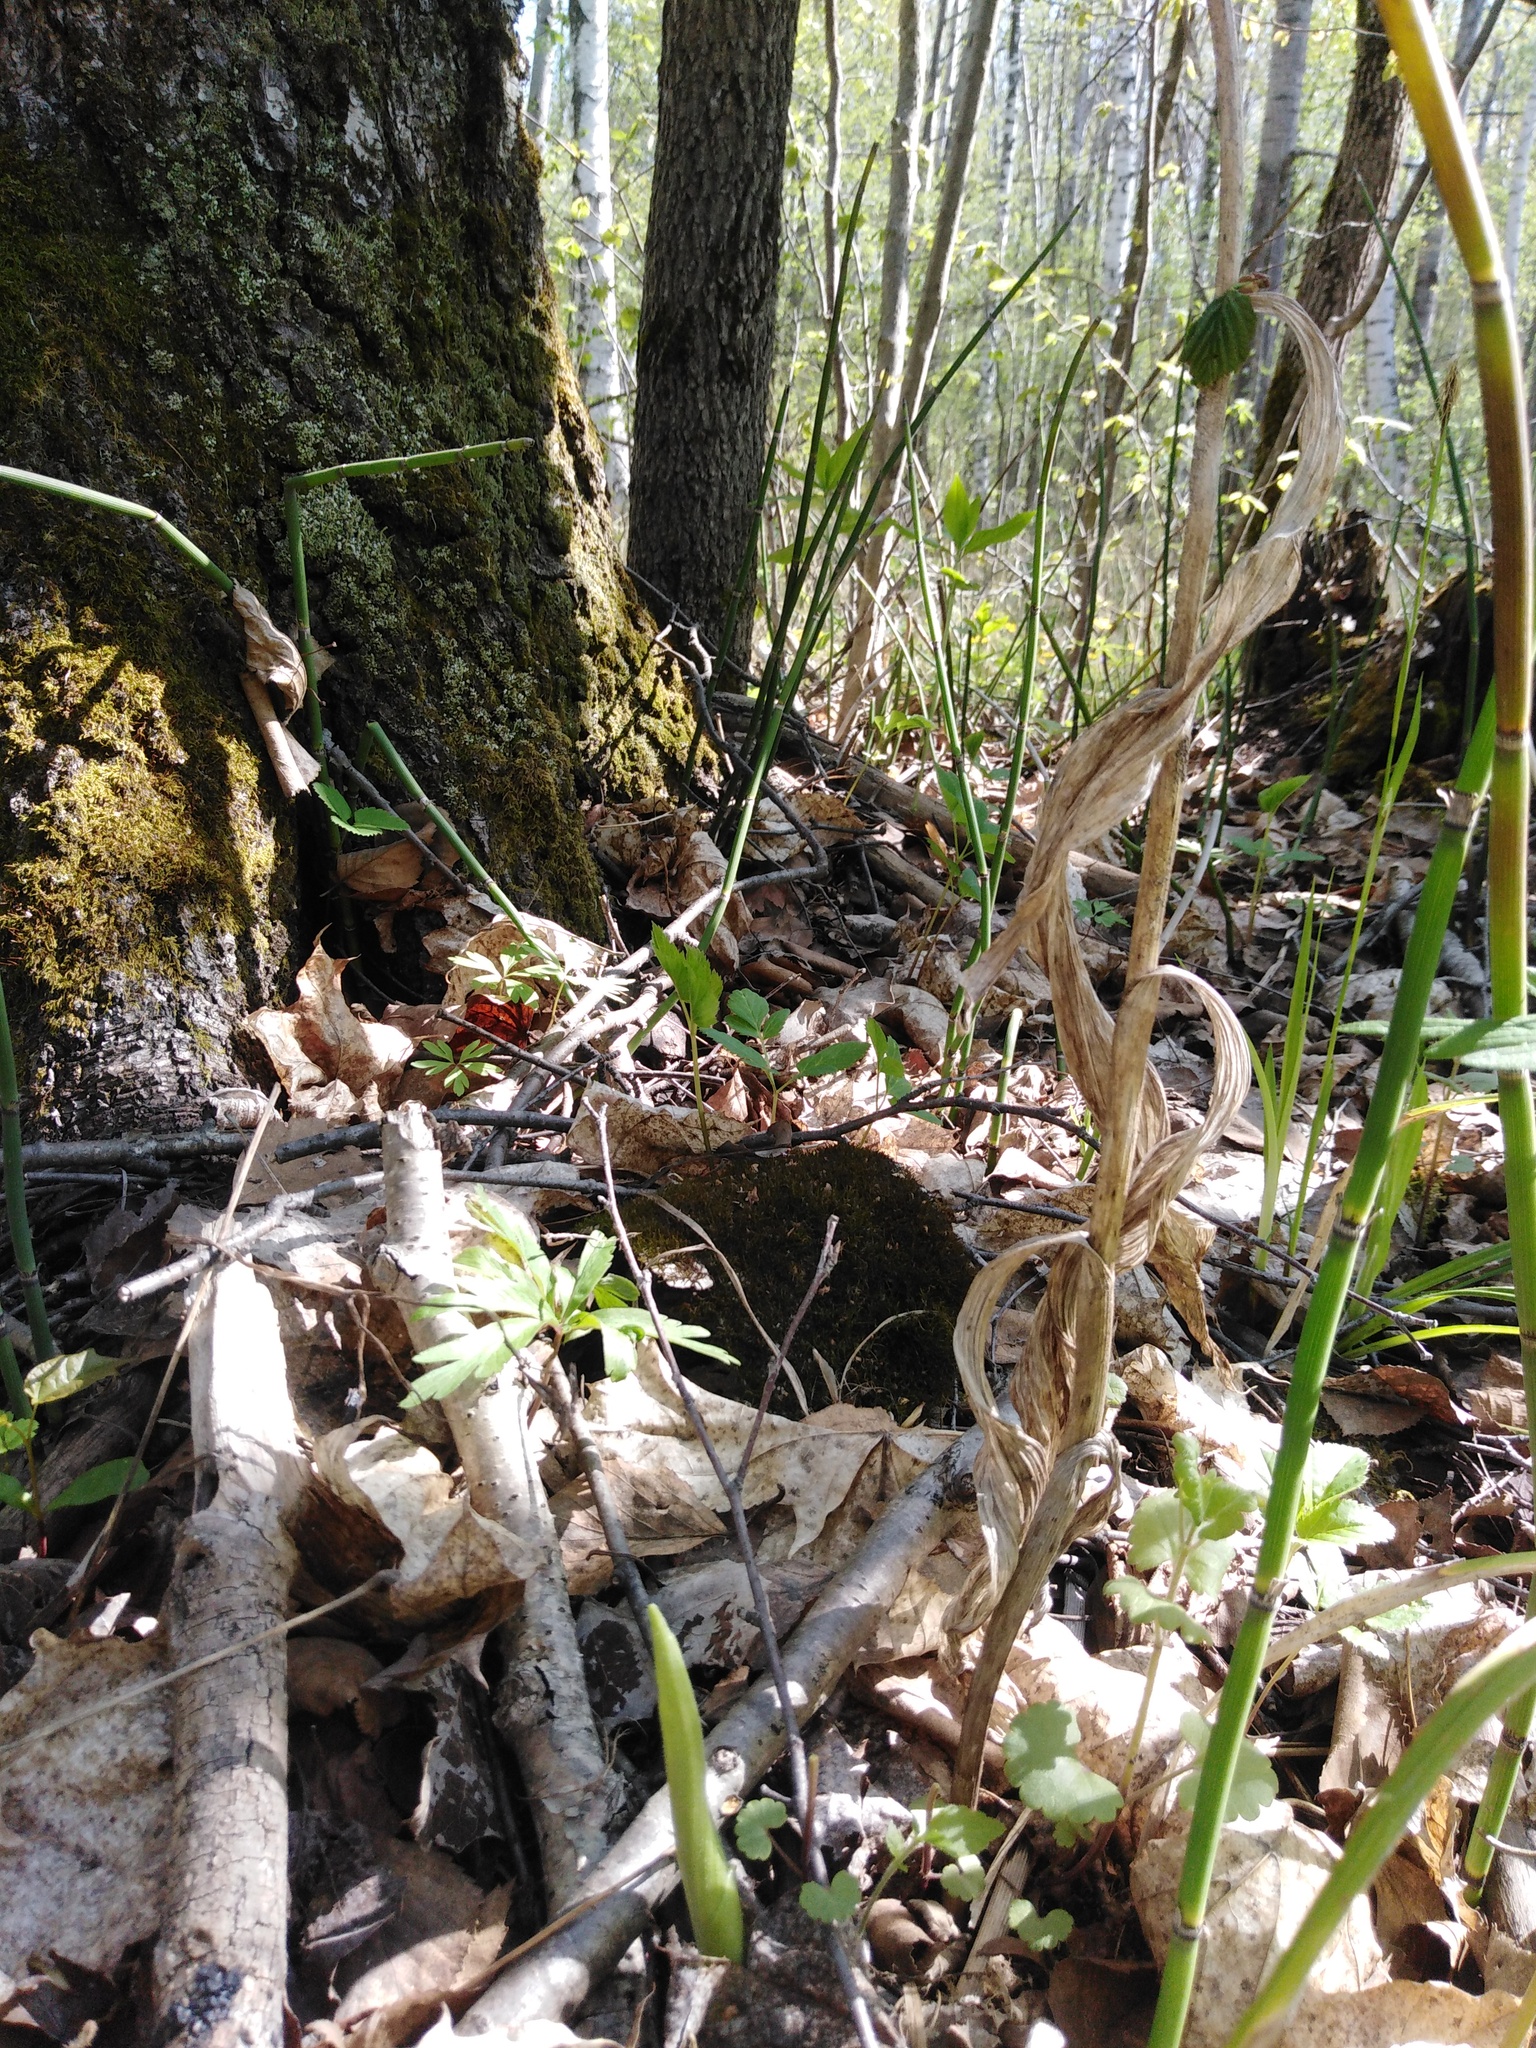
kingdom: Plantae
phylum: Tracheophyta
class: Liliopsida
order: Asparagales
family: Orchidaceae
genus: Cypripedium
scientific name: Cypripedium calceolus
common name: Lady's-slipper
